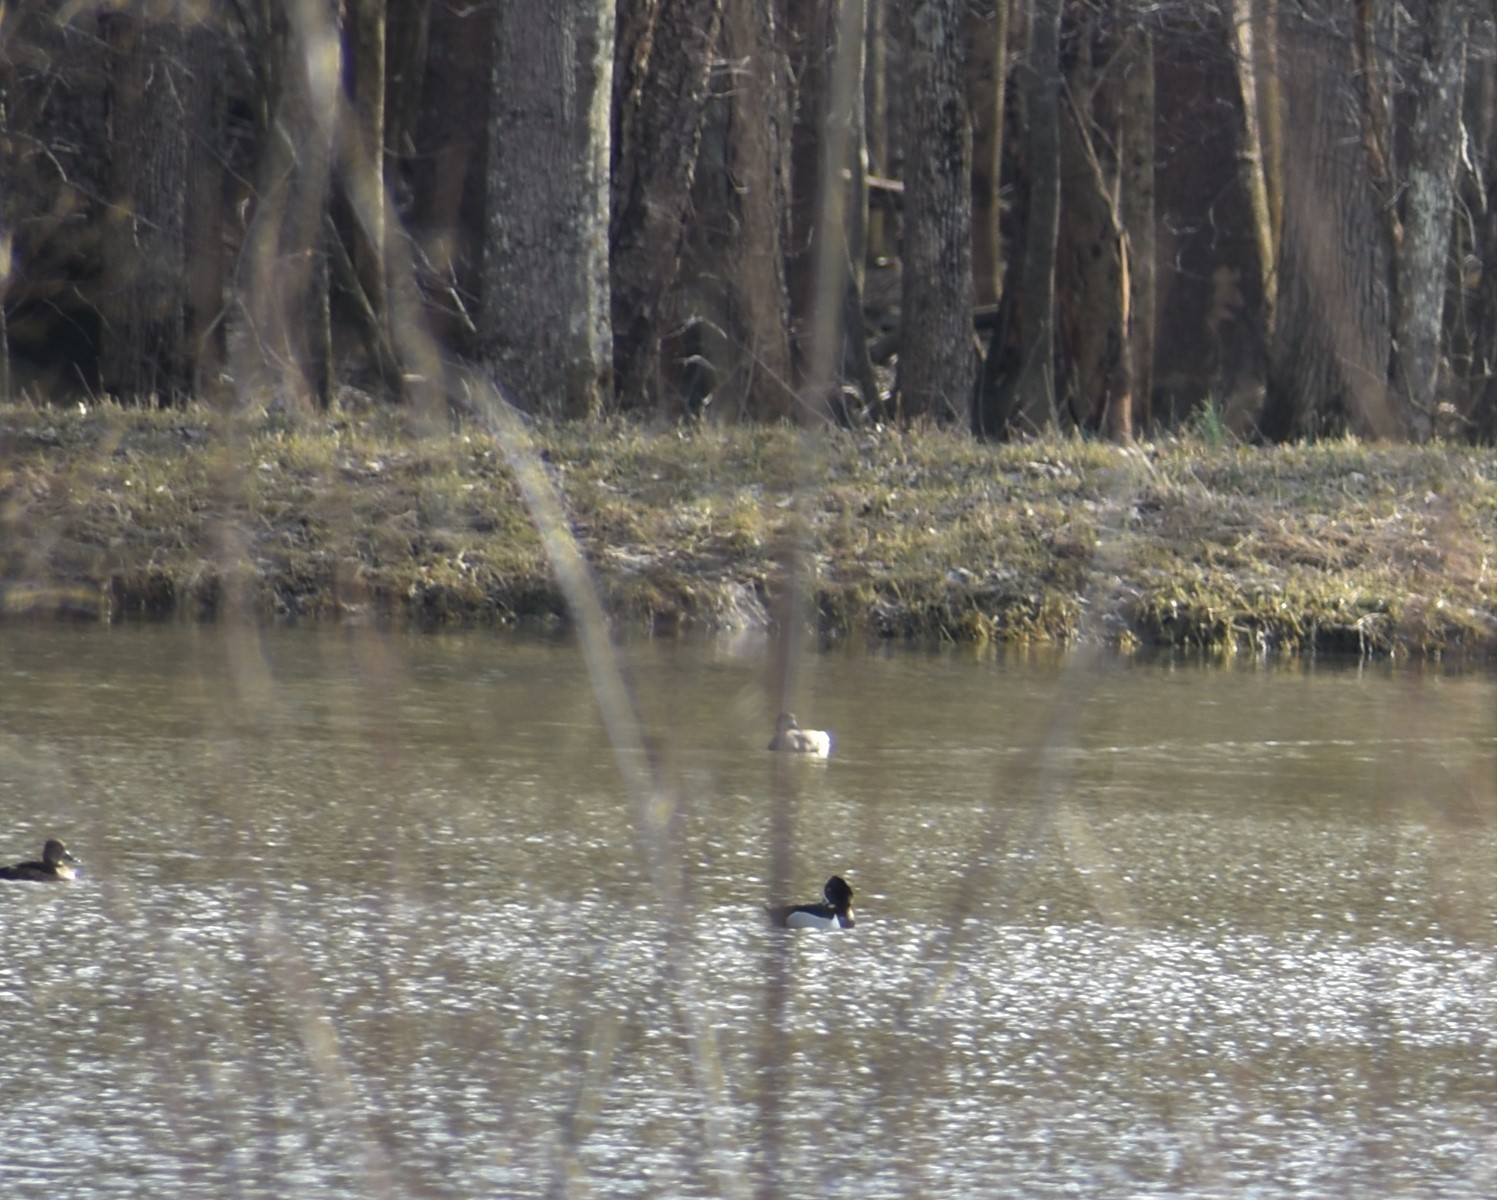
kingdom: Animalia
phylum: Chordata
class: Aves
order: Anseriformes
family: Anatidae
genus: Aythya
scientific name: Aythya collaris
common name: Ring-necked duck
